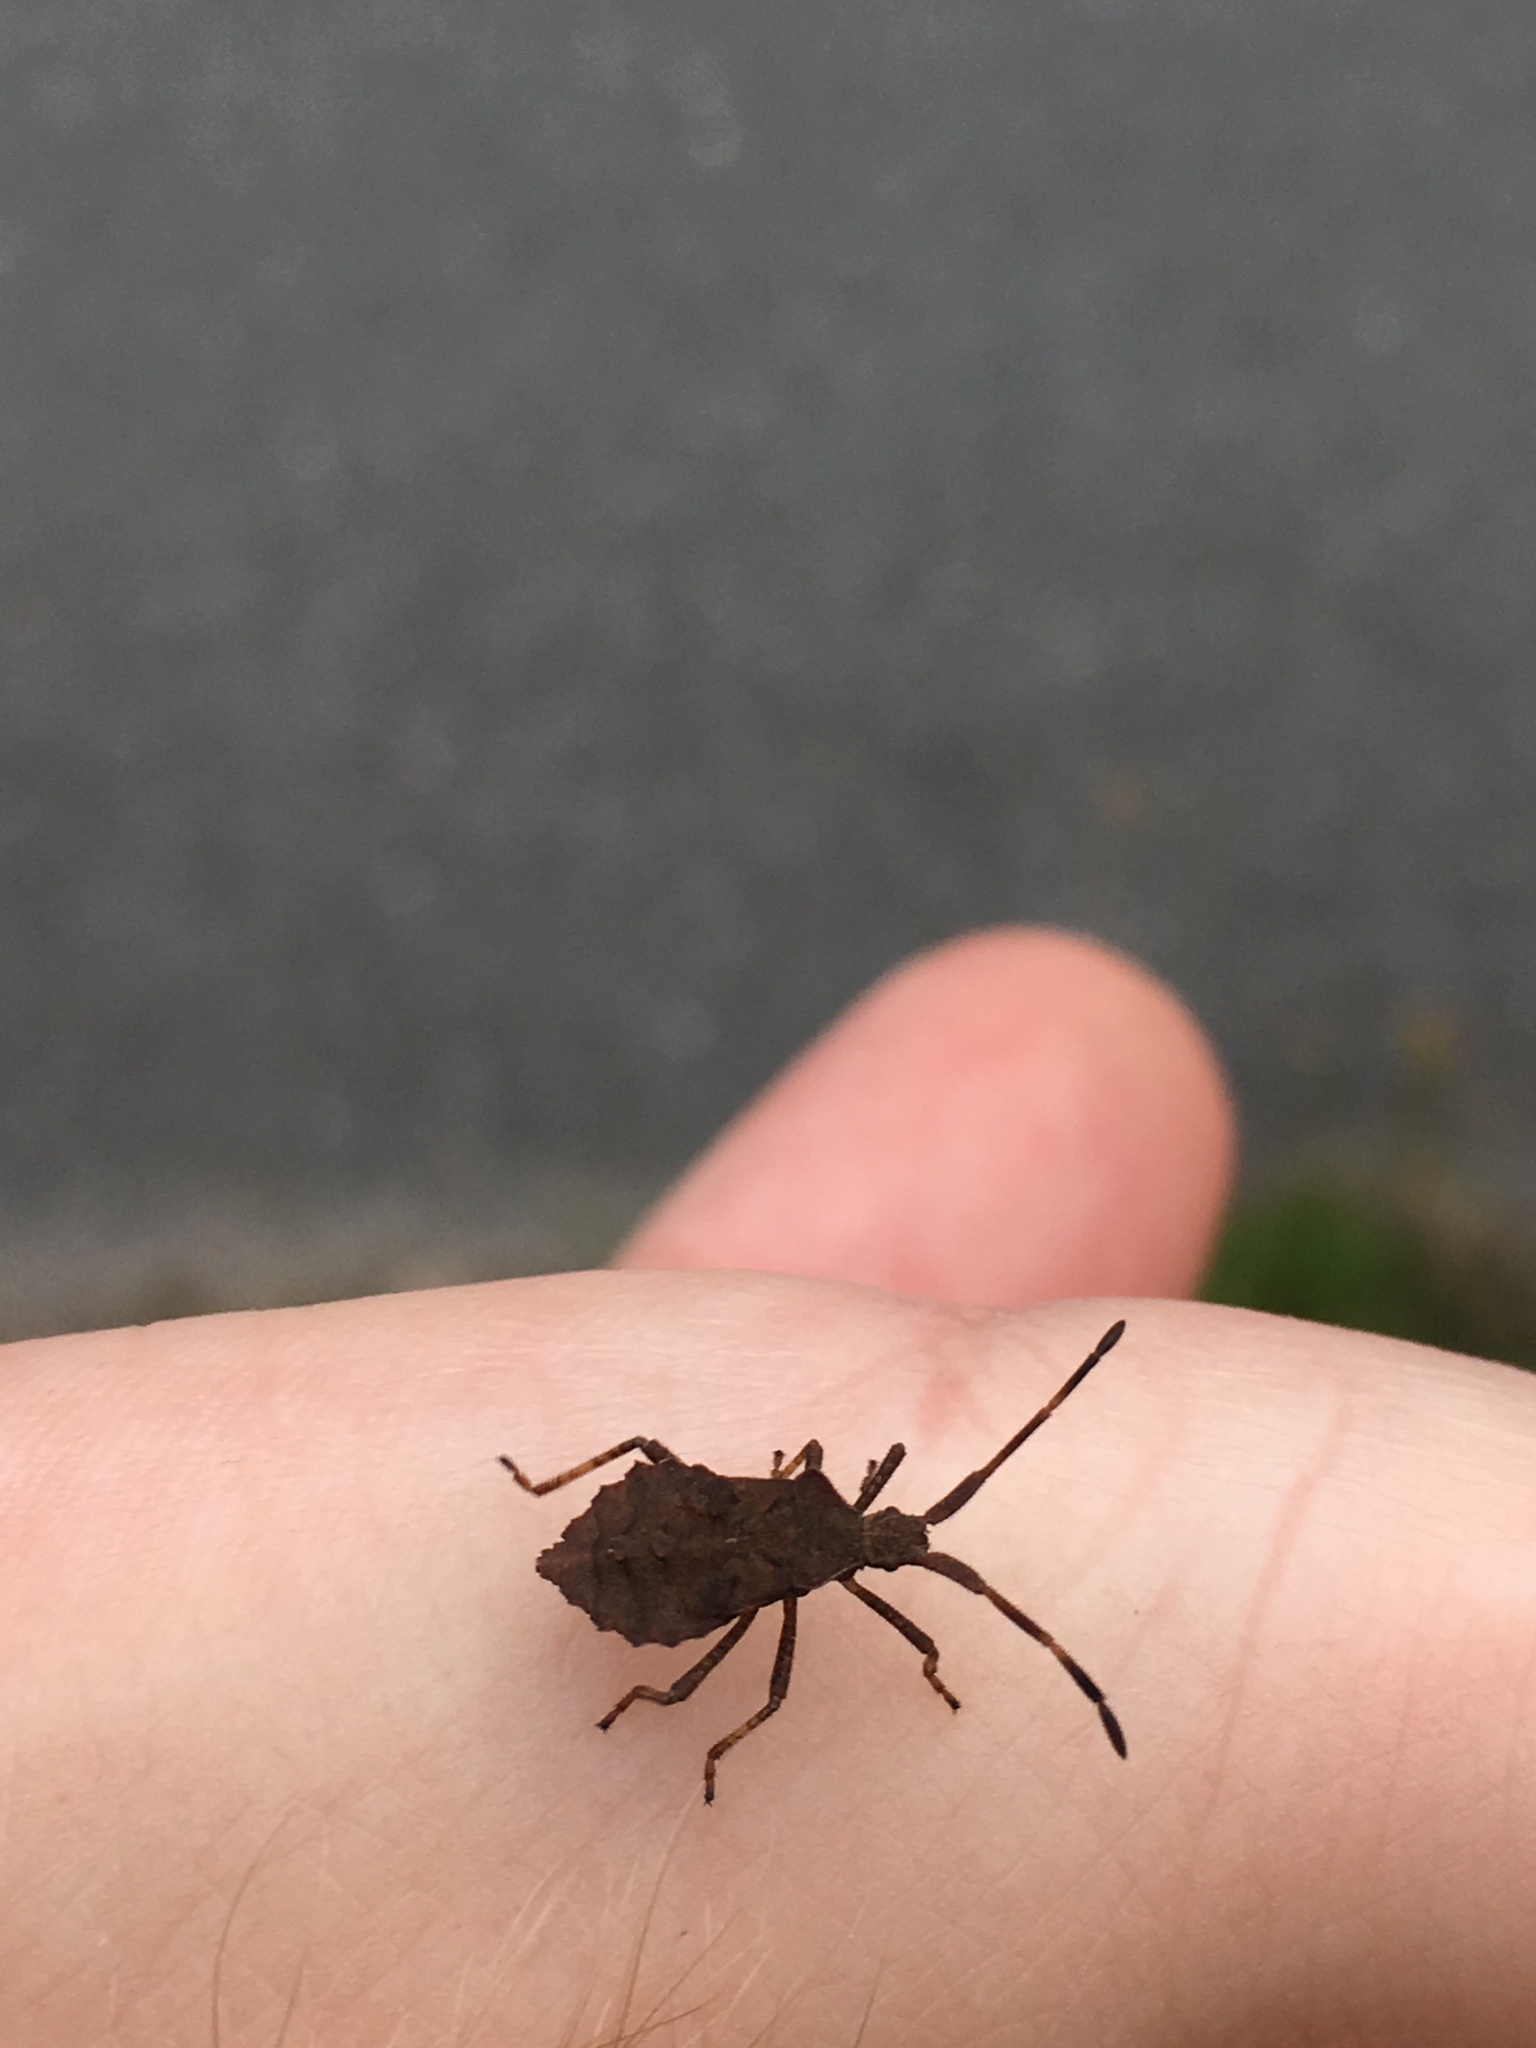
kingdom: Animalia
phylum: Arthropoda
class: Insecta
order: Hemiptera
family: Coreidae
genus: Coreus
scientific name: Coreus marginatus
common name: Dock bug
